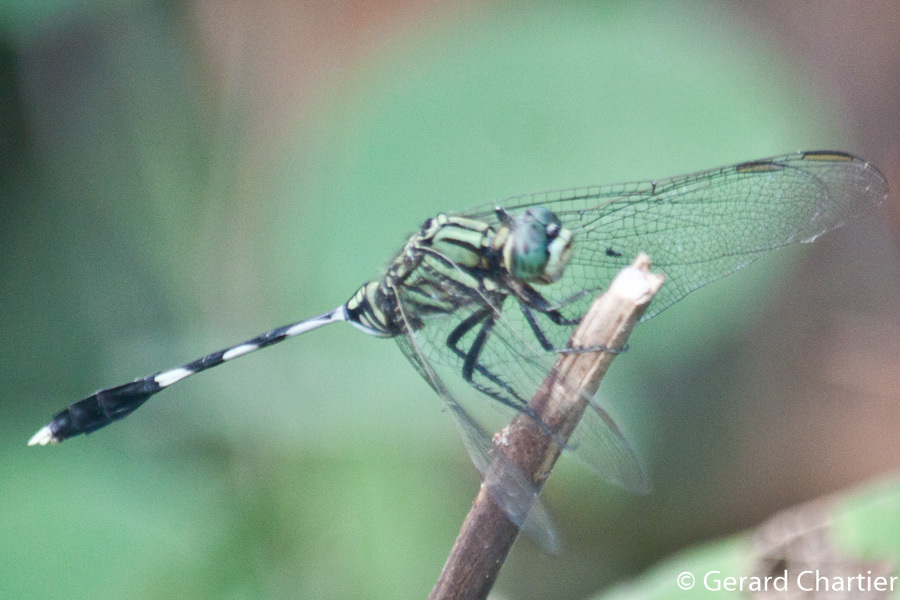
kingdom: Animalia
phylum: Arthropoda
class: Insecta
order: Odonata
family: Libellulidae
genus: Orthetrum
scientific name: Orthetrum sabina
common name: Slender skimmer
